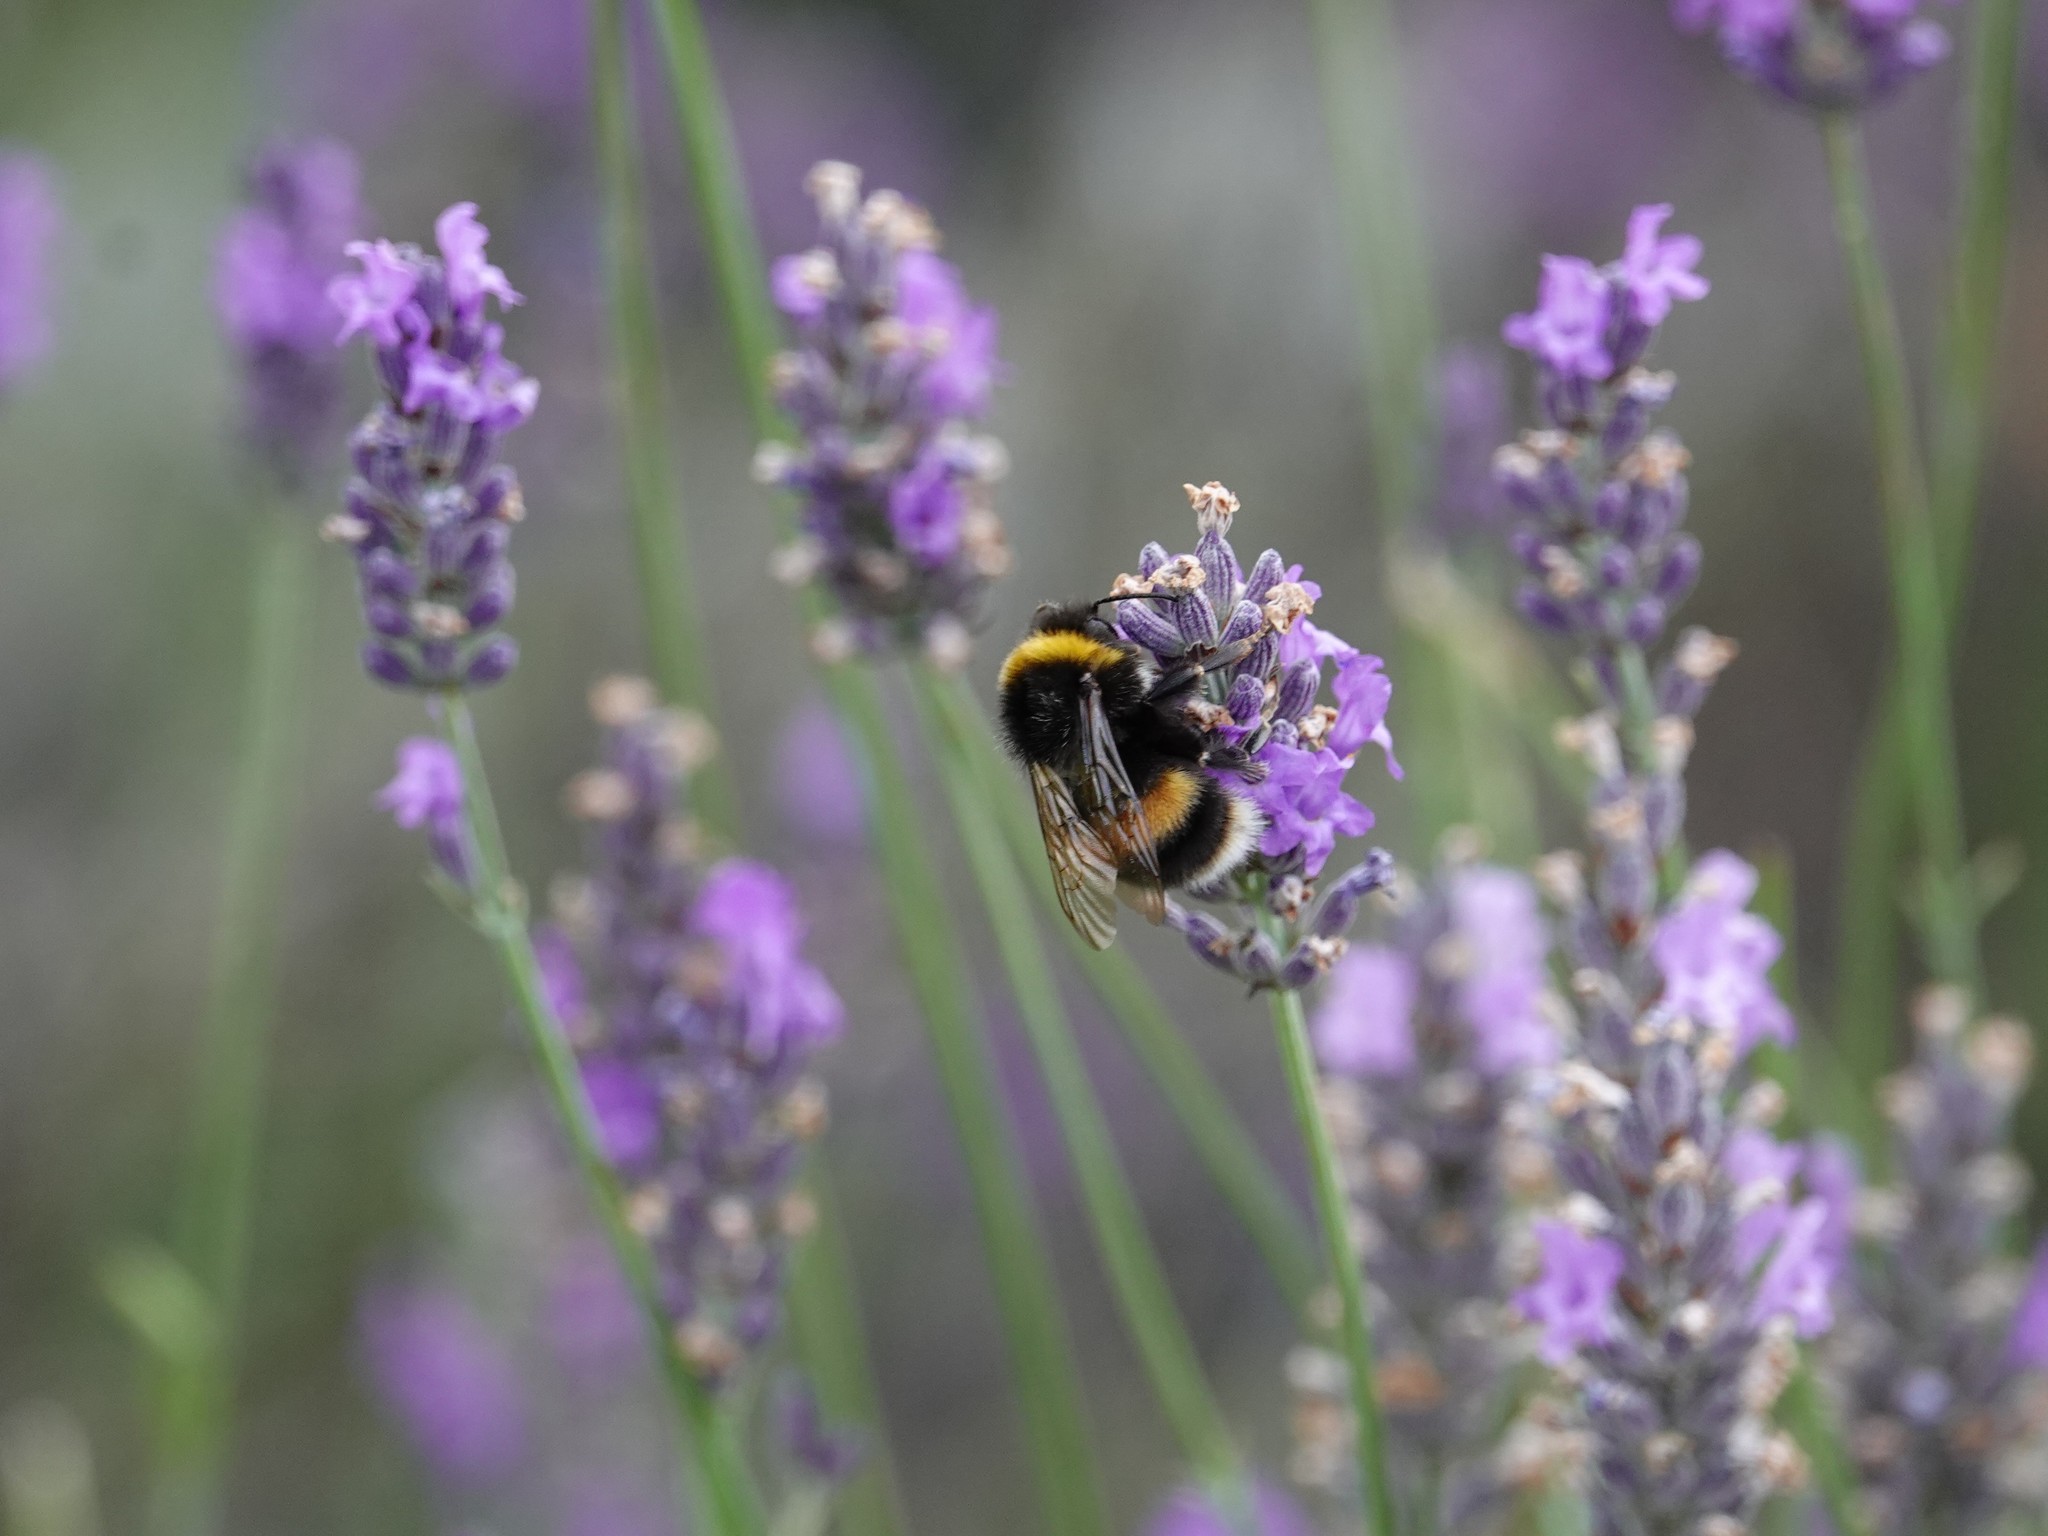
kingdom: Animalia
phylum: Arthropoda
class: Insecta
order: Hymenoptera
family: Apidae
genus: Bombus
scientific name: Bombus terrestris
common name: Buff-tailed bumblebee
